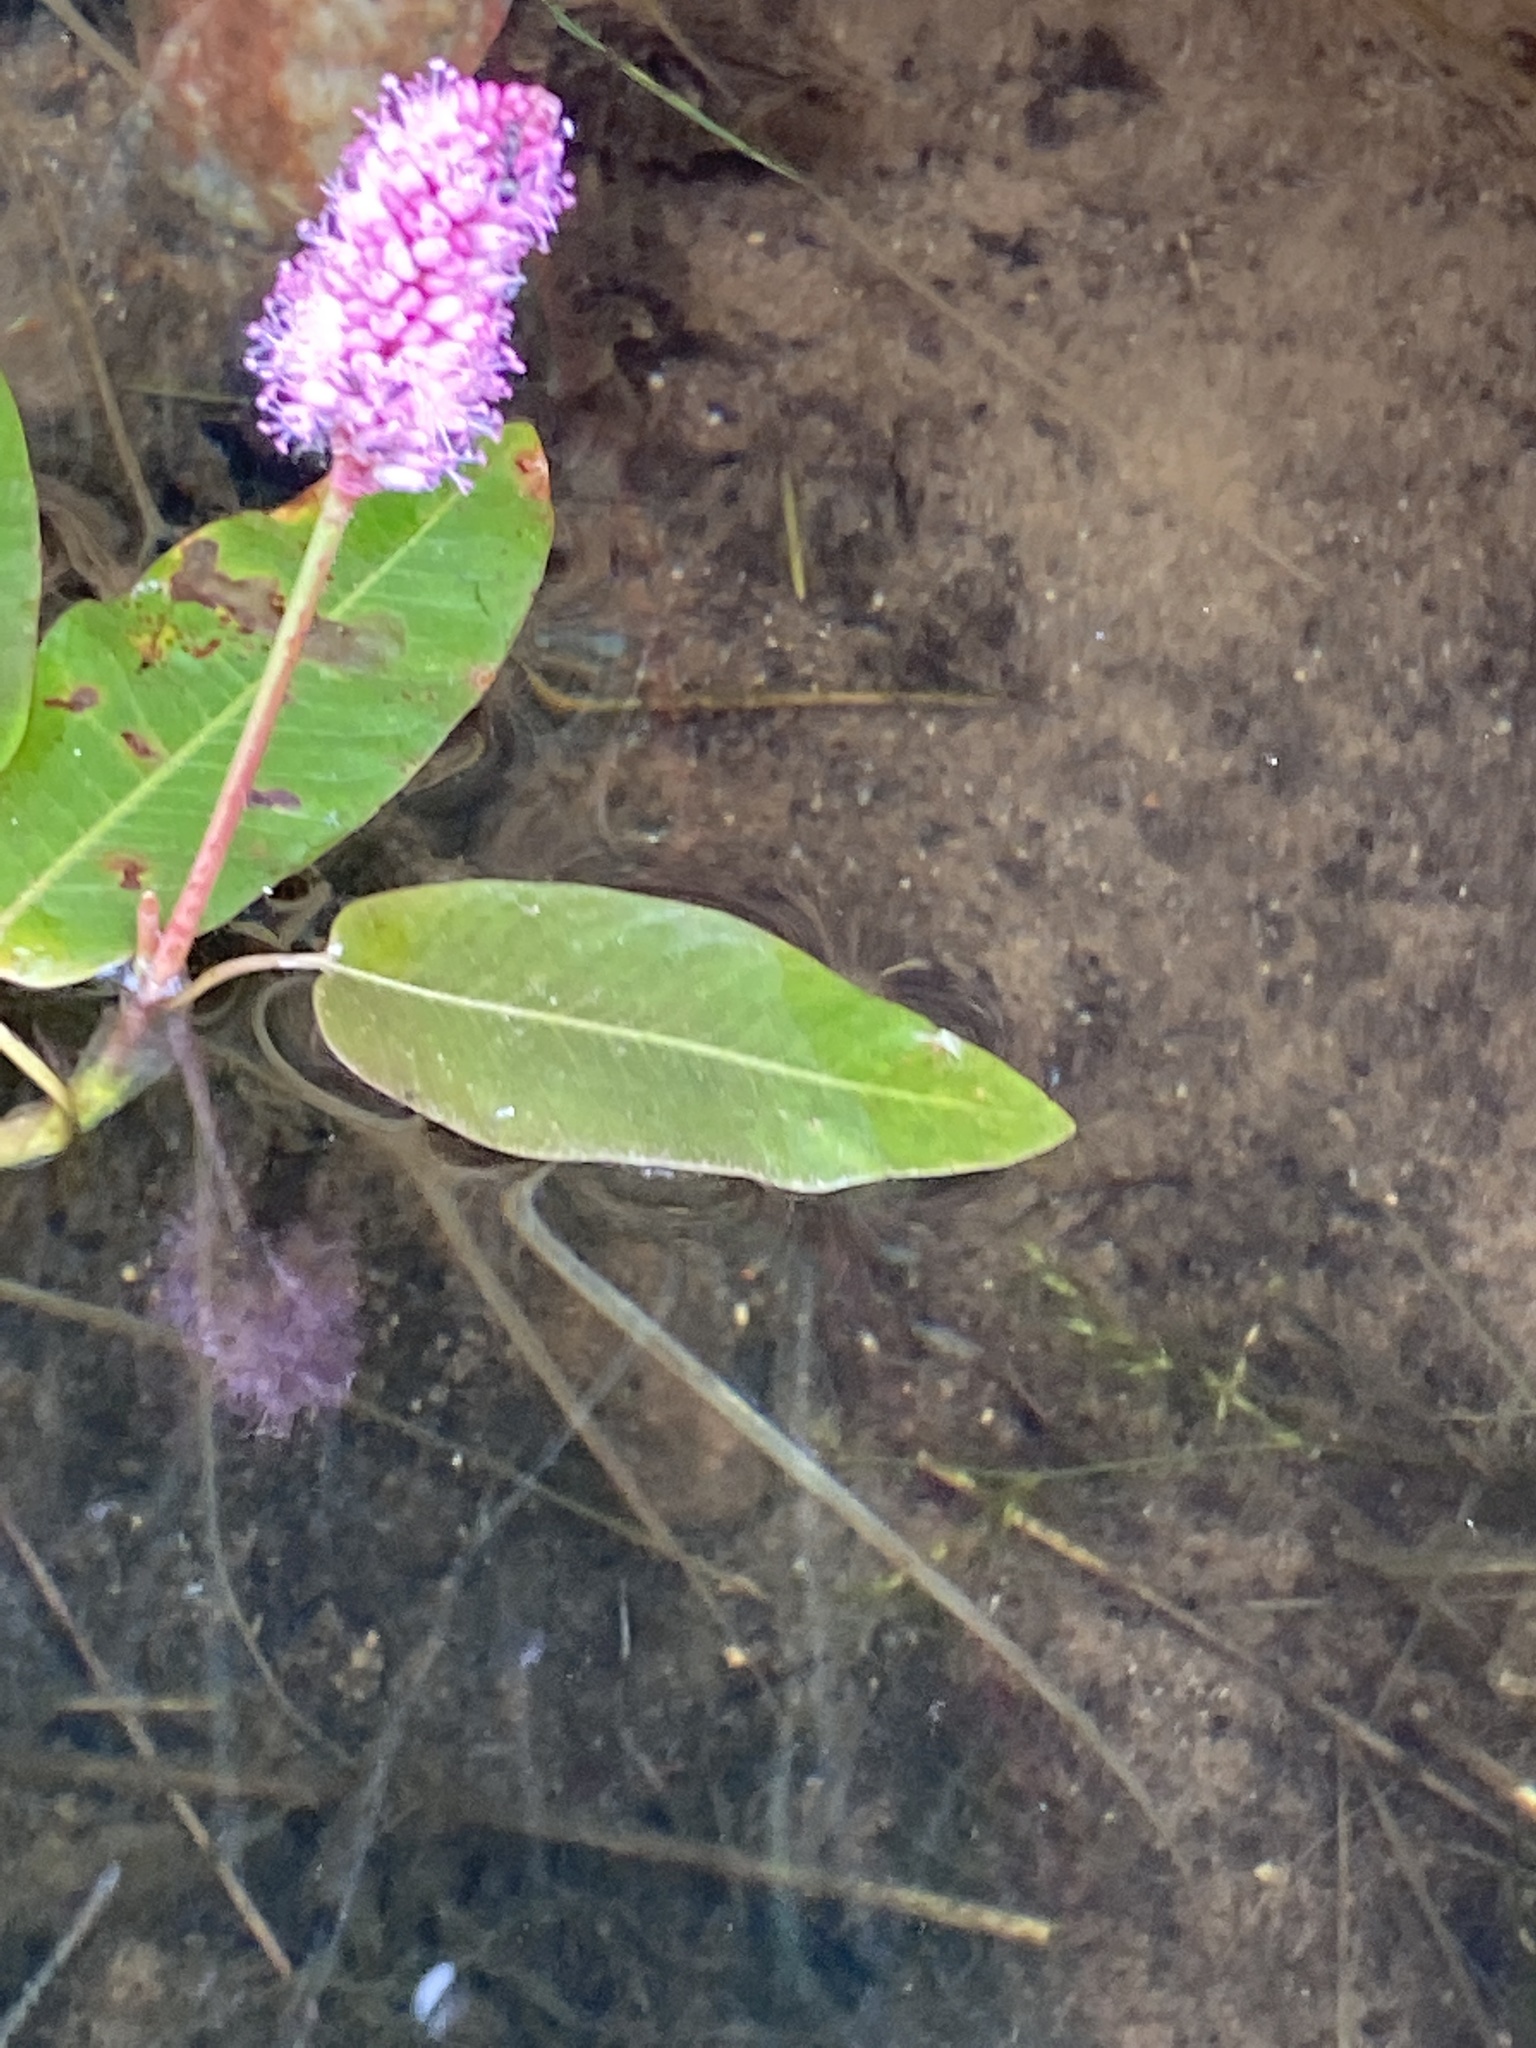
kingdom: Plantae
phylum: Tracheophyta
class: Magnoliopsida
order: Caryophyllales
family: Polygonaceae
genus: Persicaria
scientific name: Persicaria amphibia
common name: Amphibious bistort
